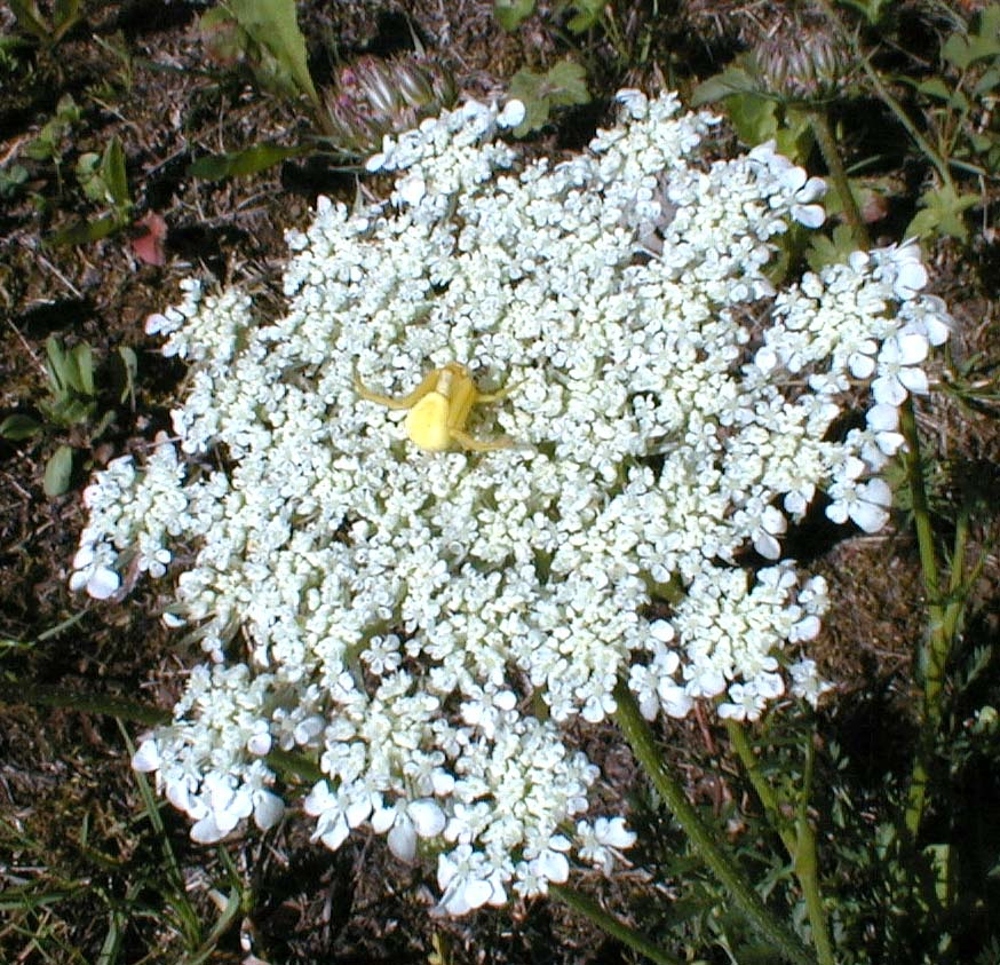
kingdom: Plantae
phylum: Tracheophyta
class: Magnoliopsida
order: Apiales
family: Apiaceae
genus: Daucus
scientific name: Daucus carota
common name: Wild carrot
